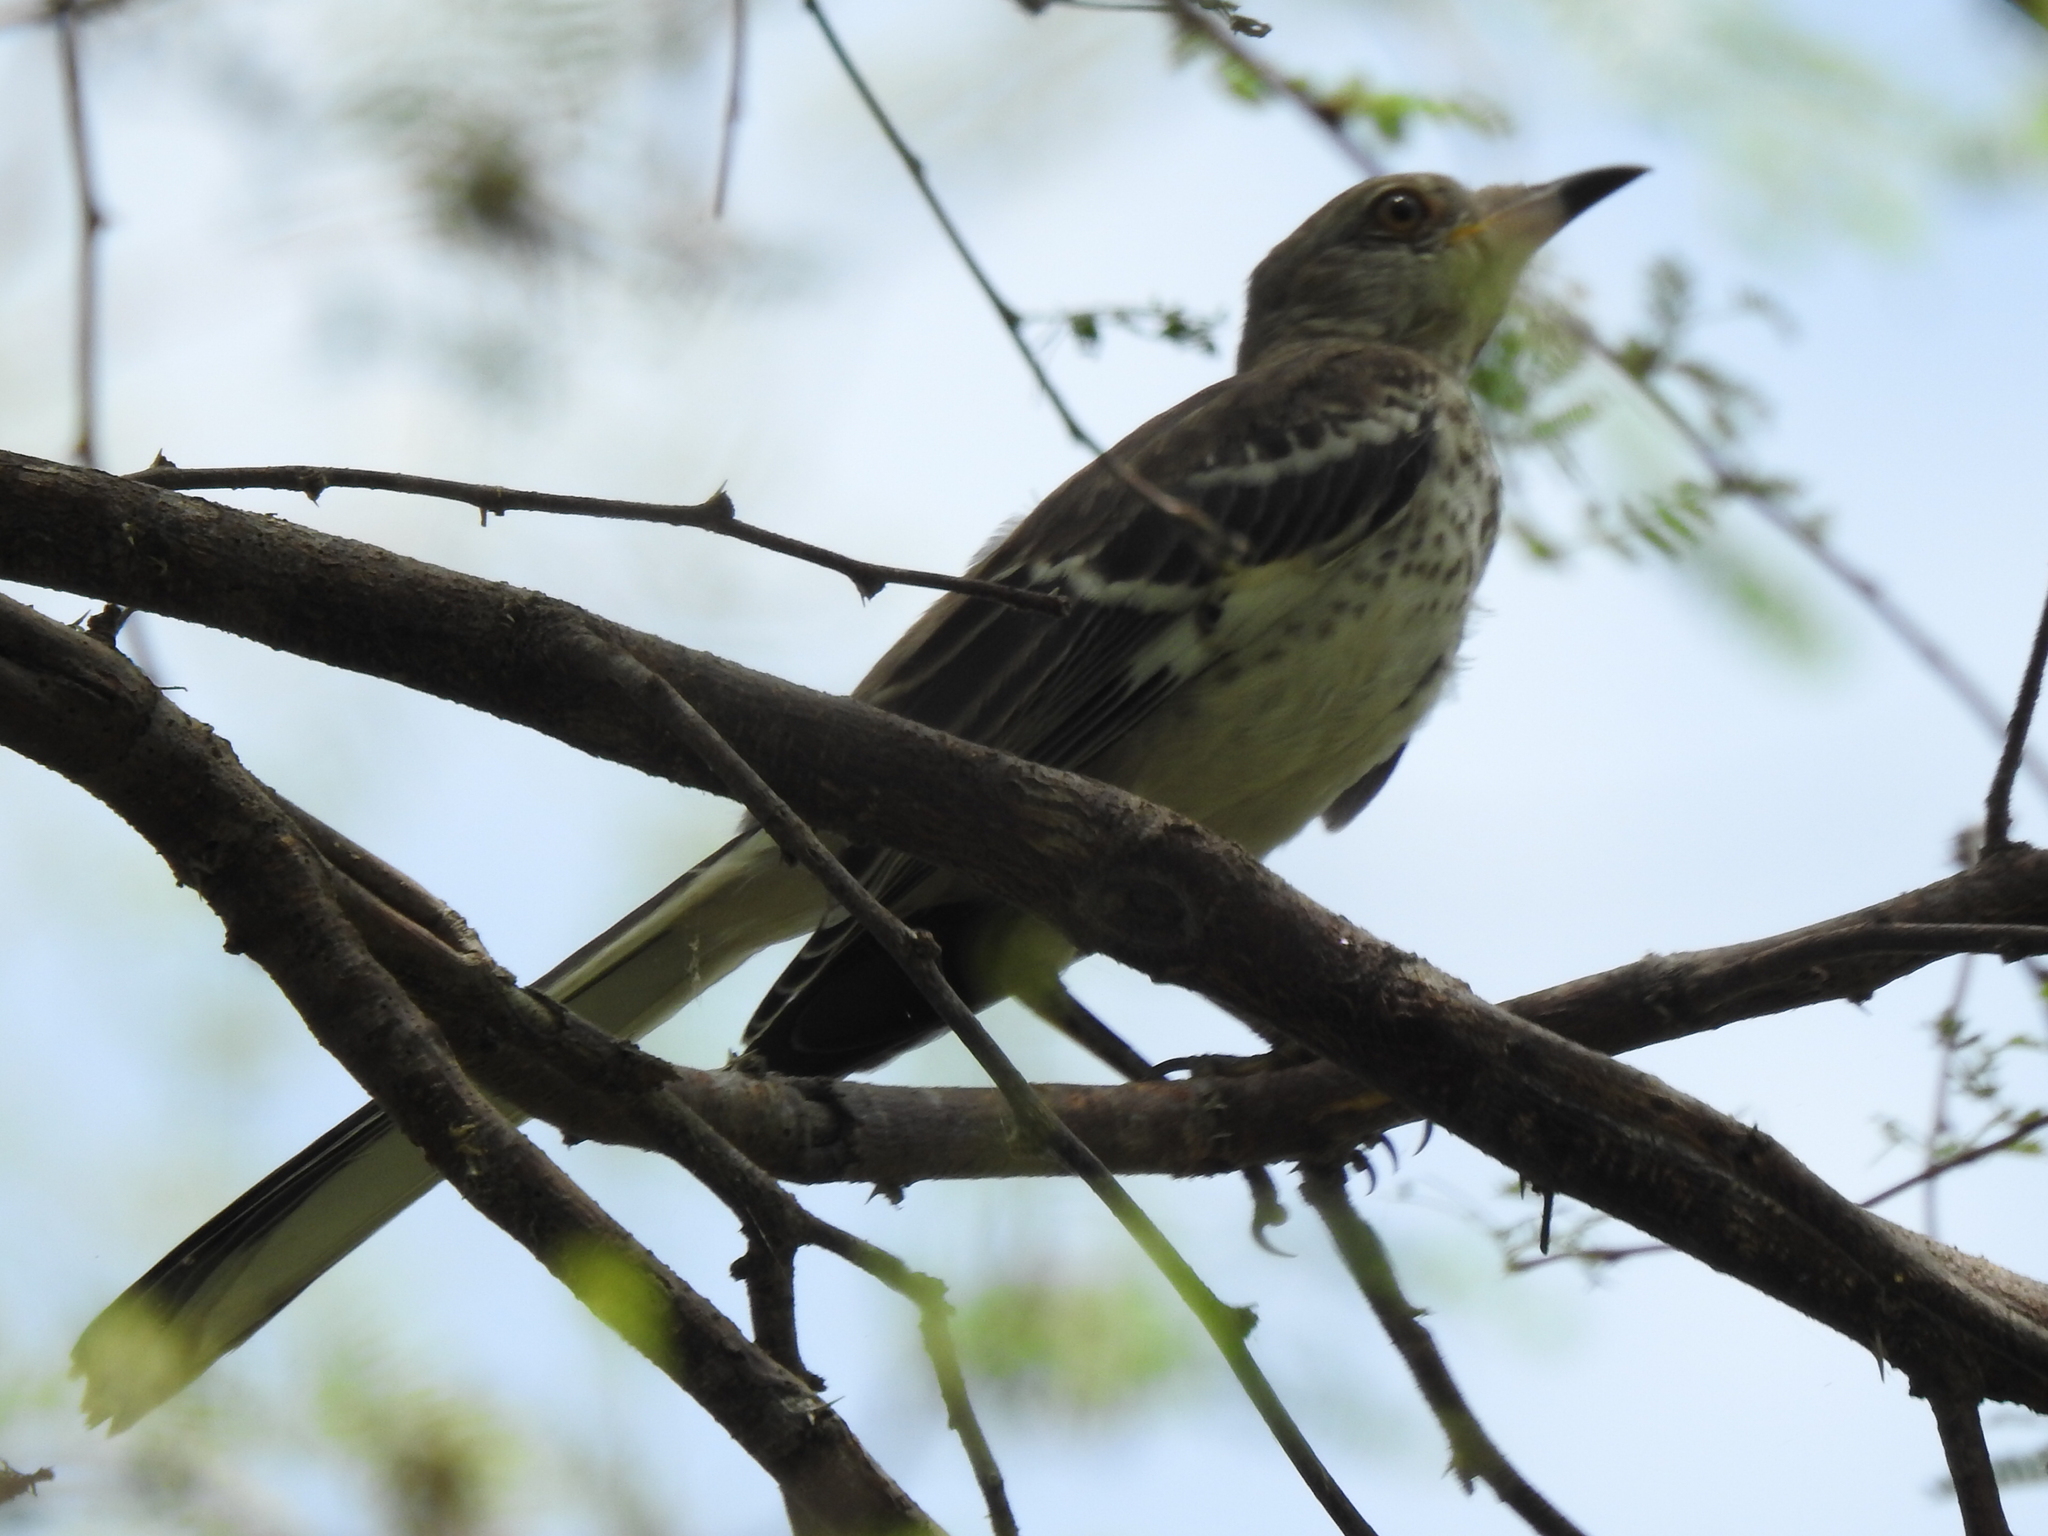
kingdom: Animalia
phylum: Chordata
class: Aves
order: Passeriformes
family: Mimidae
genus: Mimus
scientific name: Mimus polyglottos
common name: Northern mockingbird
